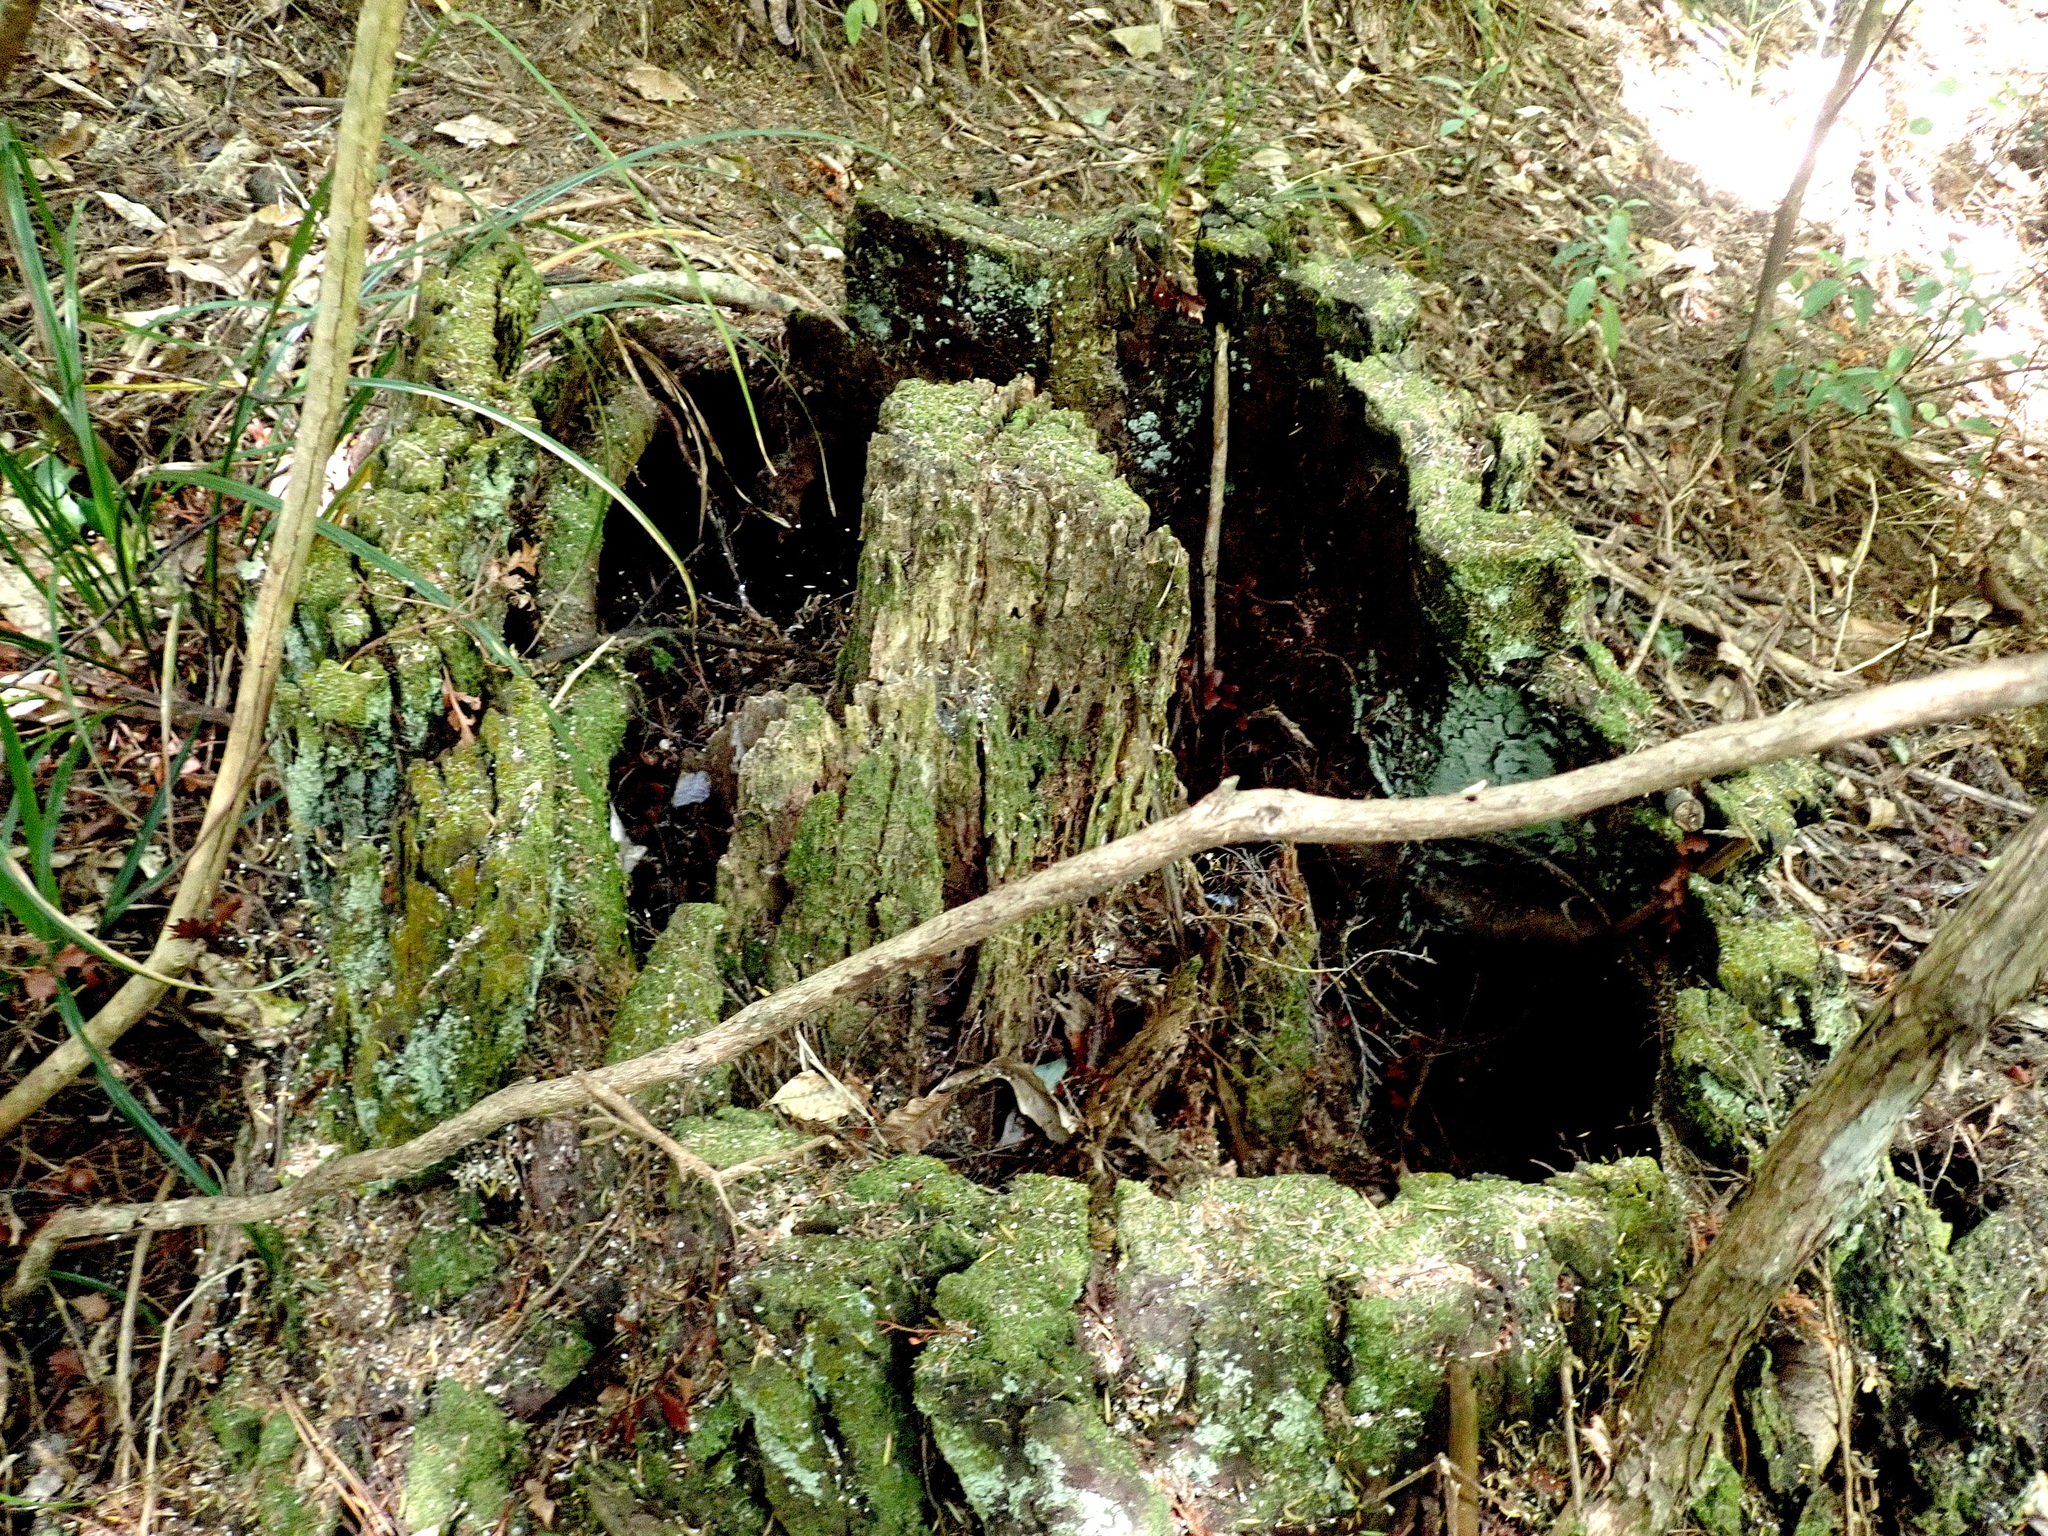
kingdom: Plantae
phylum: Tracheophyta
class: Pinopsida
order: Pinales
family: Phyllocladaceae
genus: Phyllocladus
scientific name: Phyllocladus trichomanoides
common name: Celery pine
